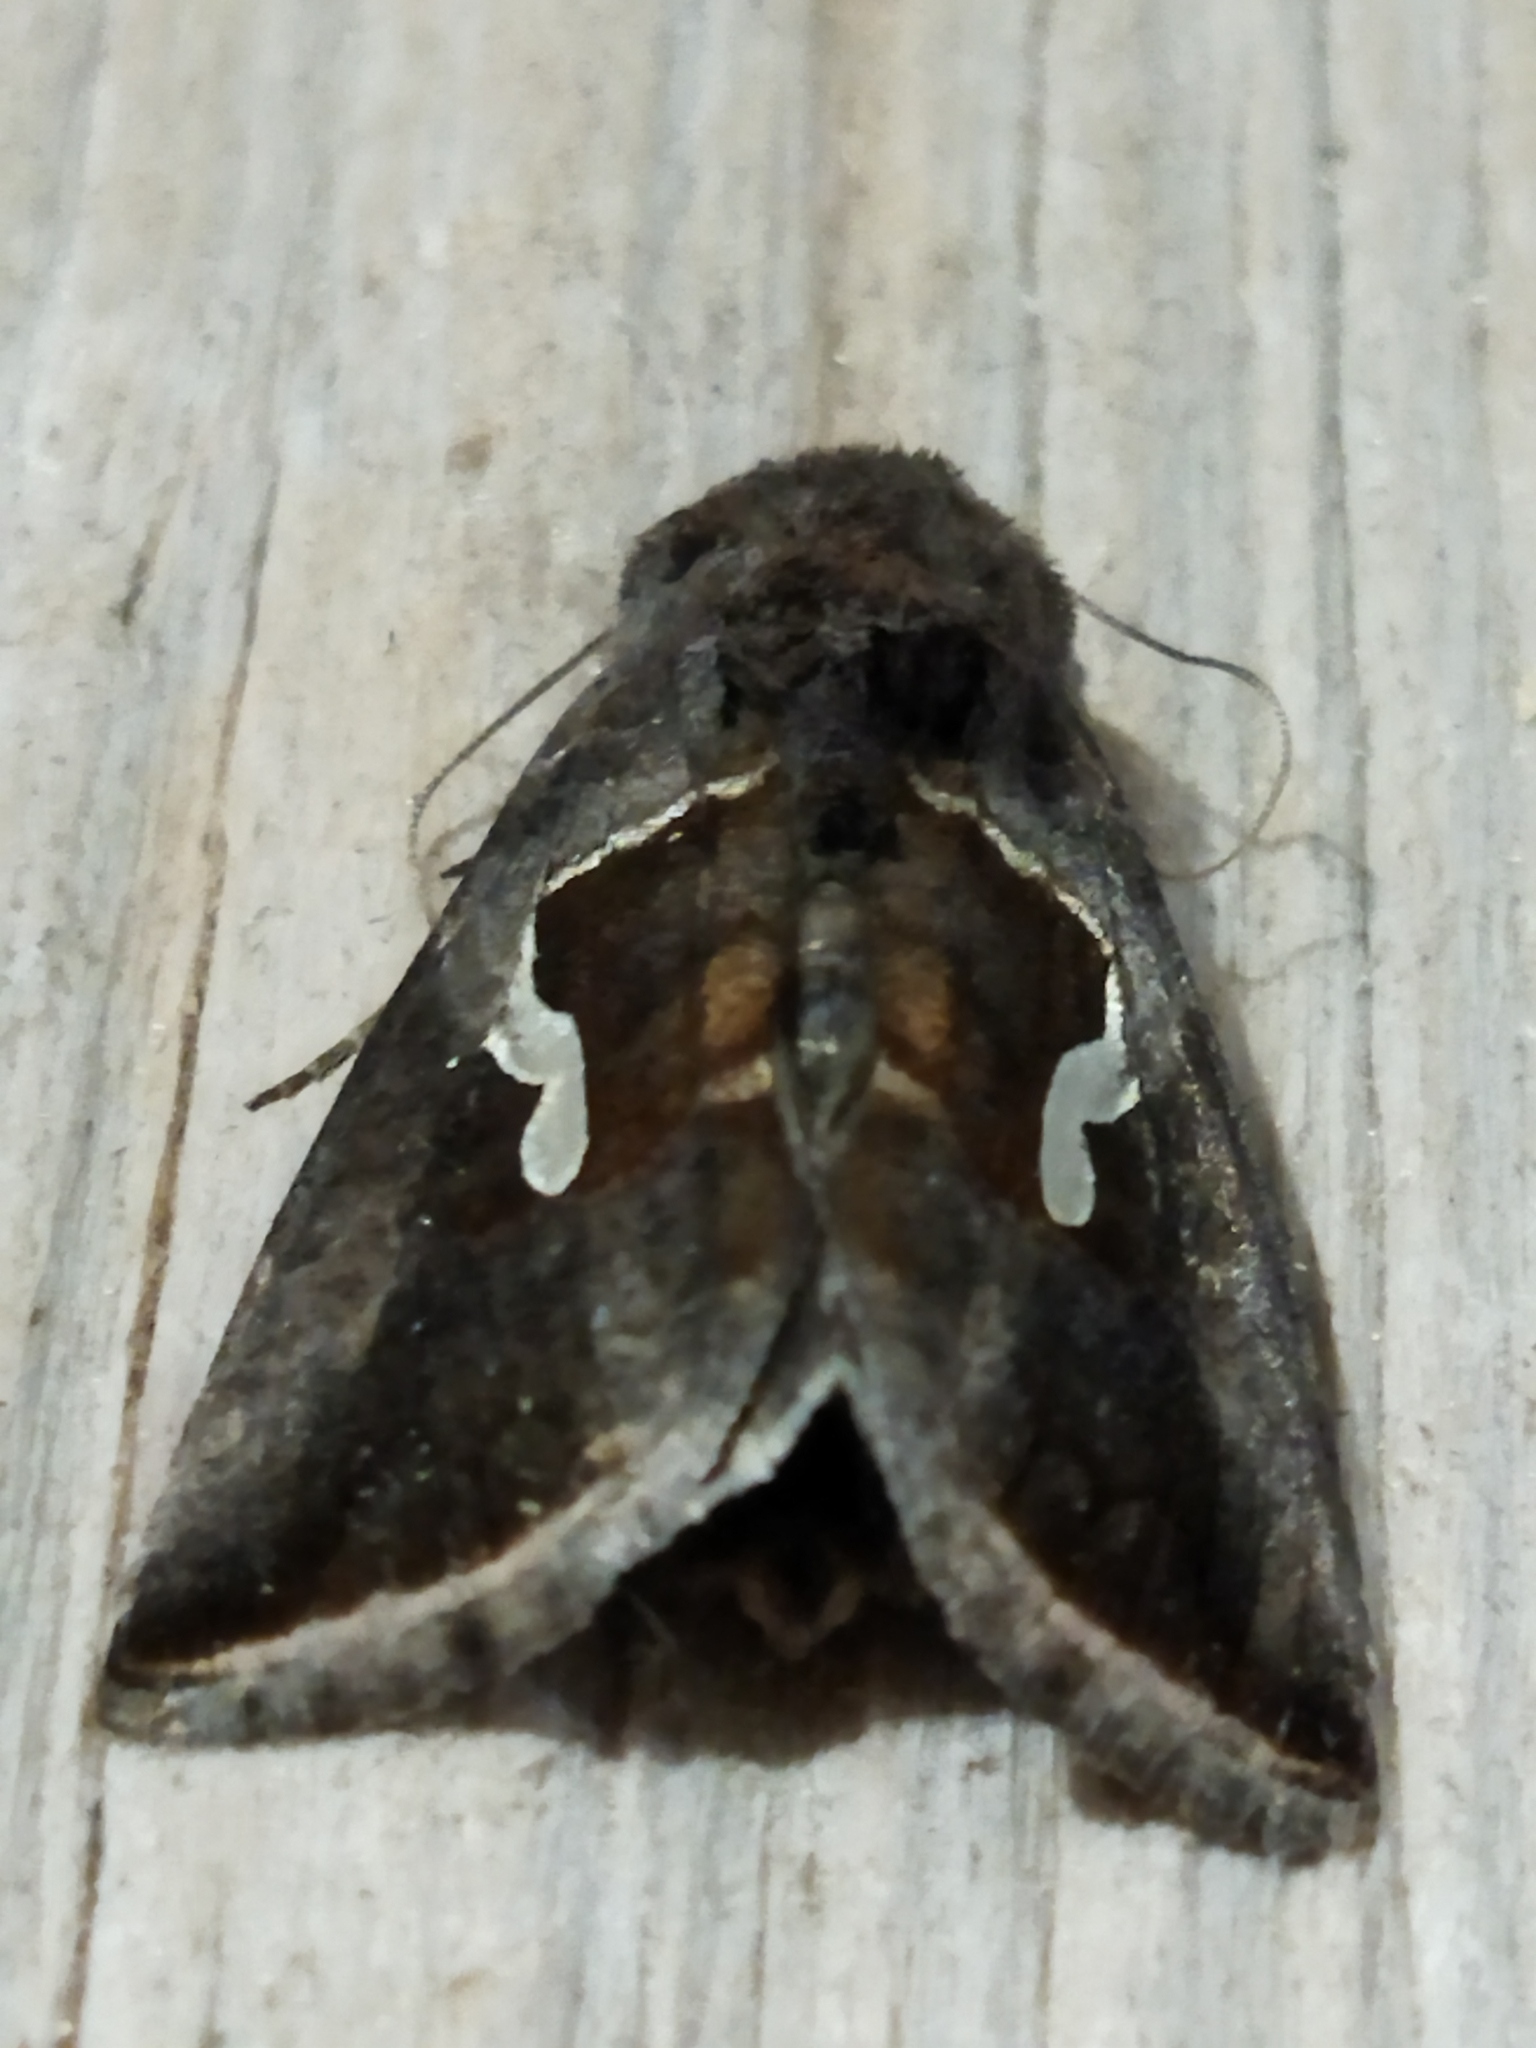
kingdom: Animalia
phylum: Arthropoda
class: Insecta
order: Lepidoptera
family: Noctuidae
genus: Macdunnoughia
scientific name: Macdunnoughia confusa
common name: Dewick's plusia
